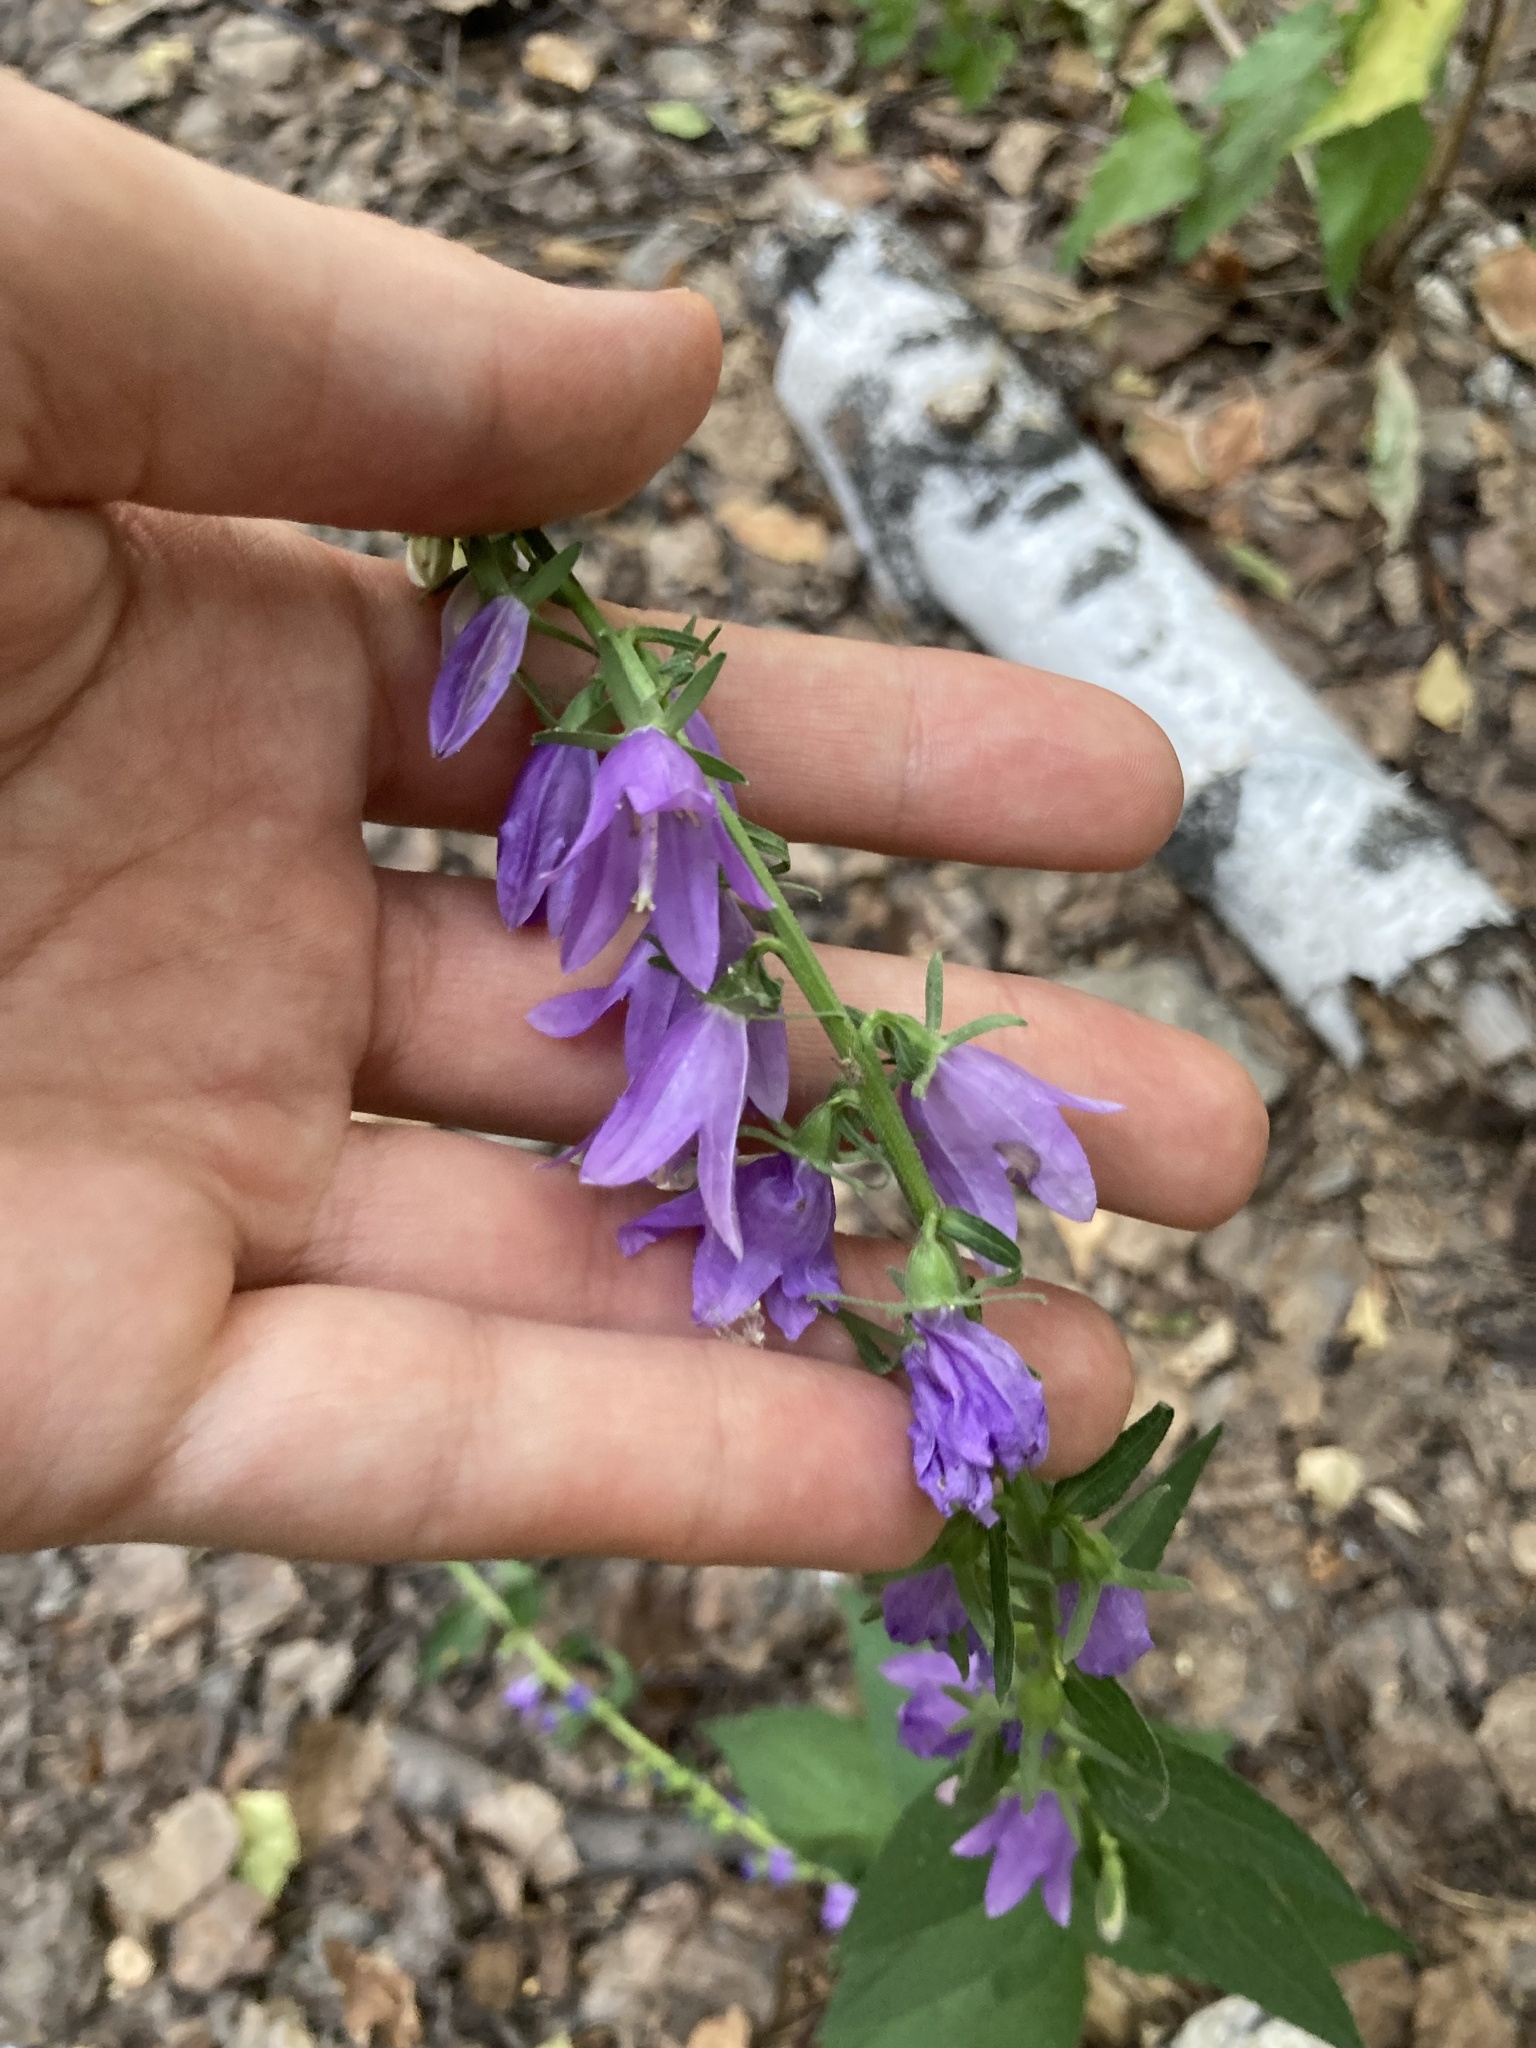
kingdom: Plantae
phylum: Tracheophyta
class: Magnoliopsida
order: Asterales
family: Campanulaceae
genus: Campanula
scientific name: Campanula rapunculoides
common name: Creeping bellflower
